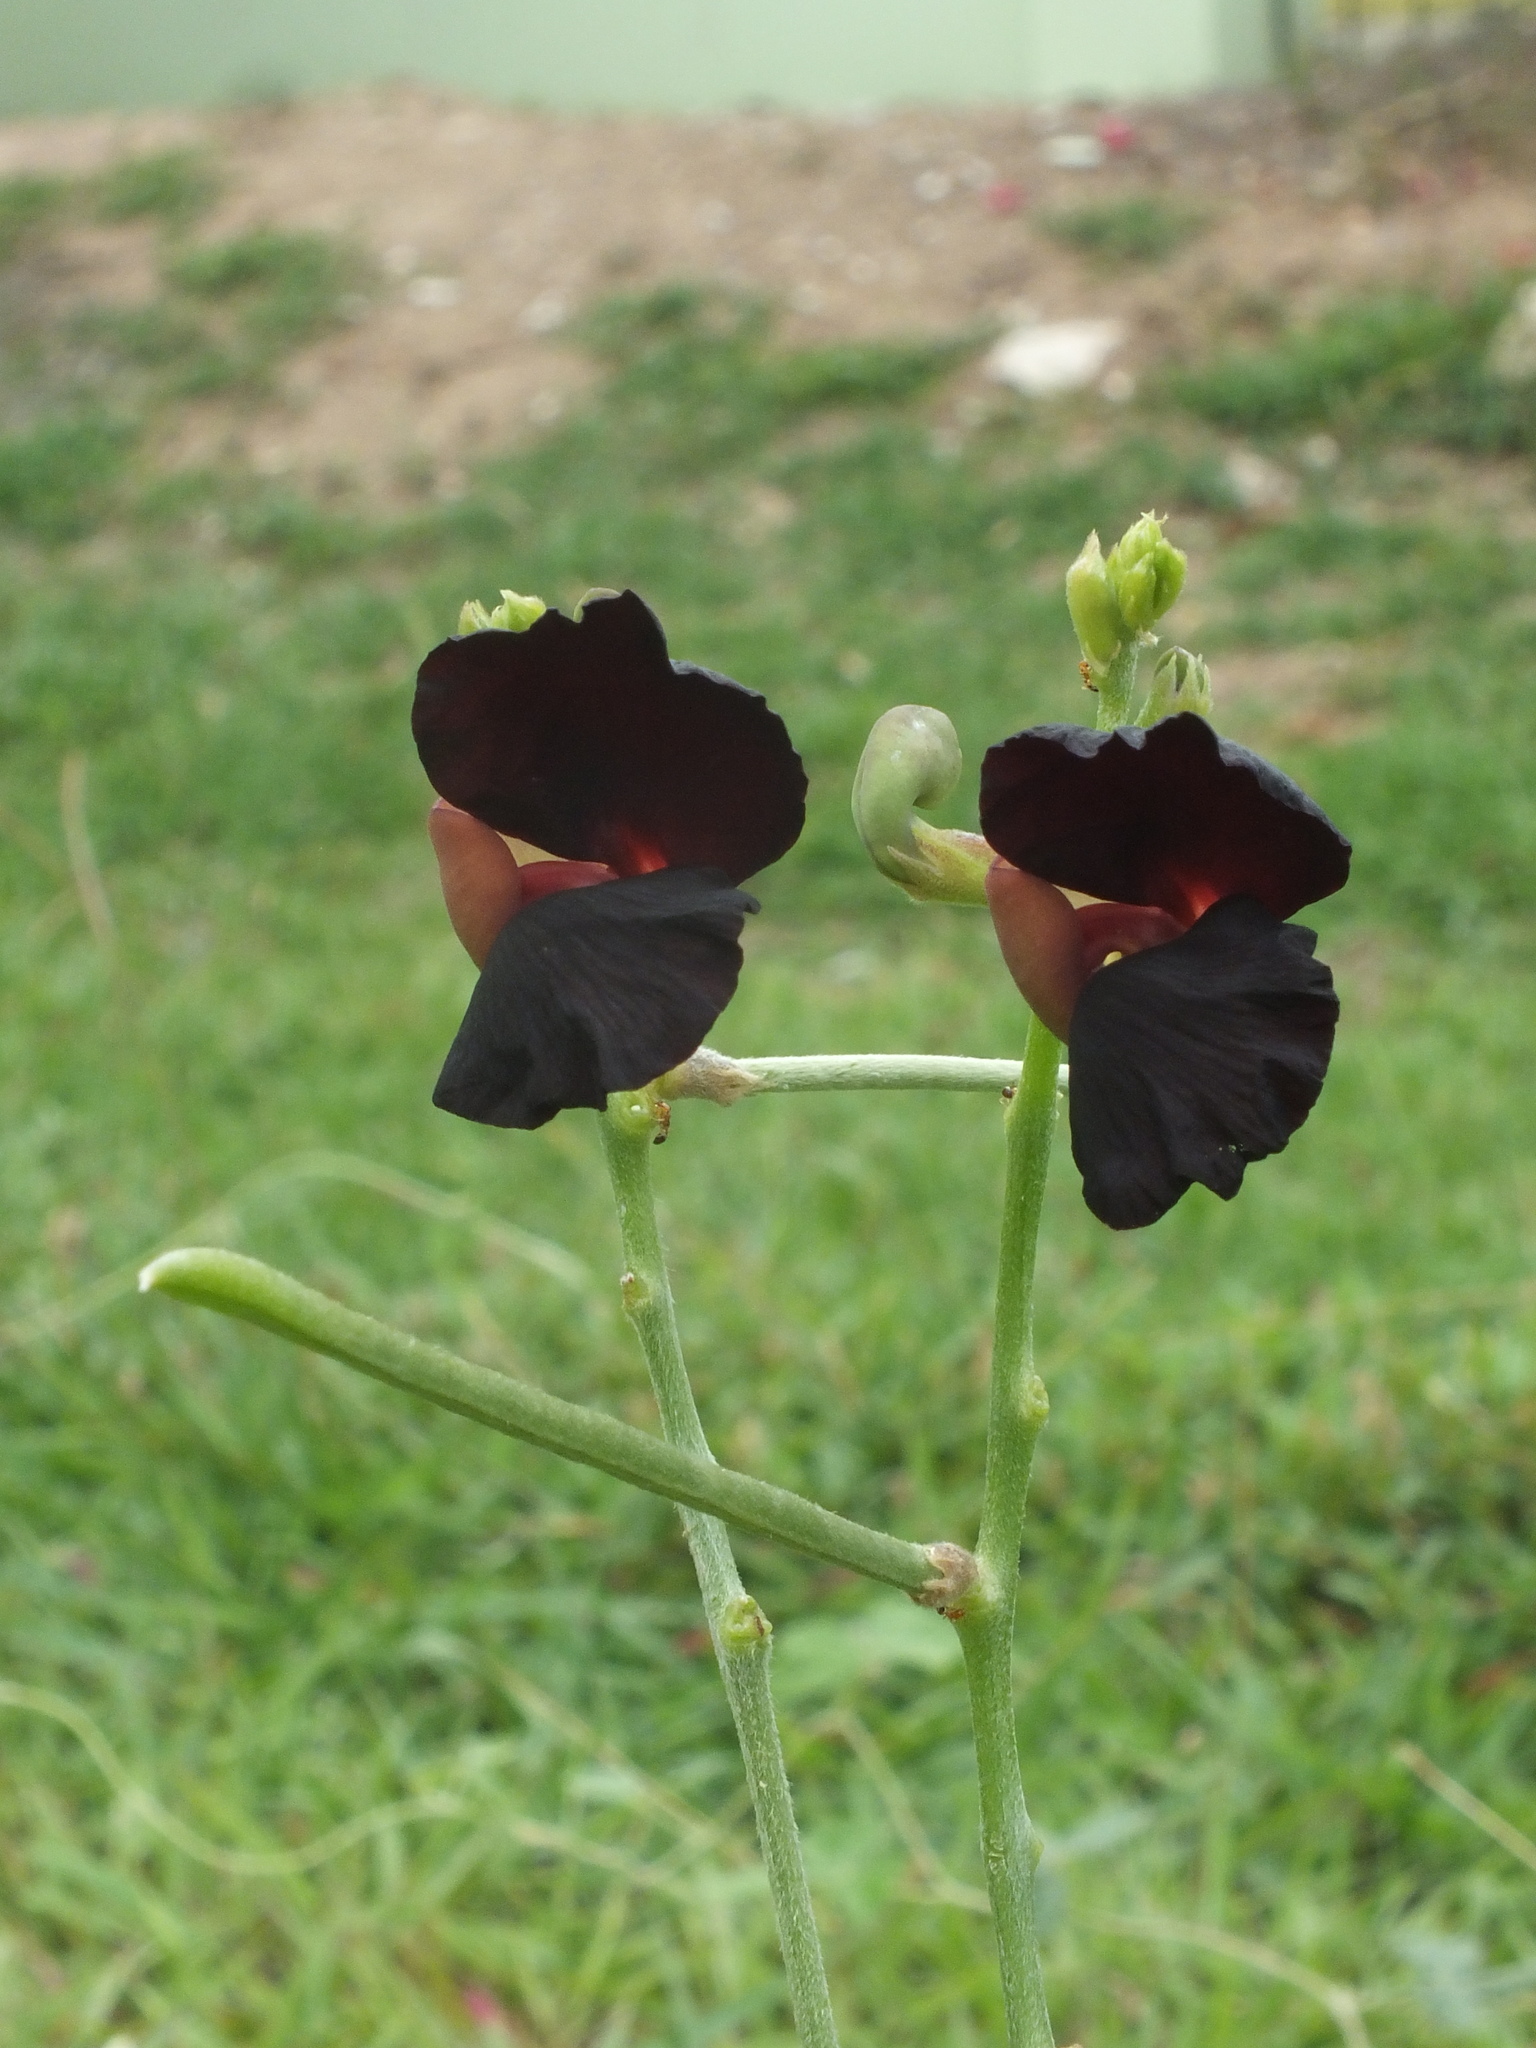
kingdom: Plantae
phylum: Tracheophyta
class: Magnoliopsida
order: Fabales
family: Fabaceae
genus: Macroptilium
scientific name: Macroptilium atropurpureum
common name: Purple bushbean
